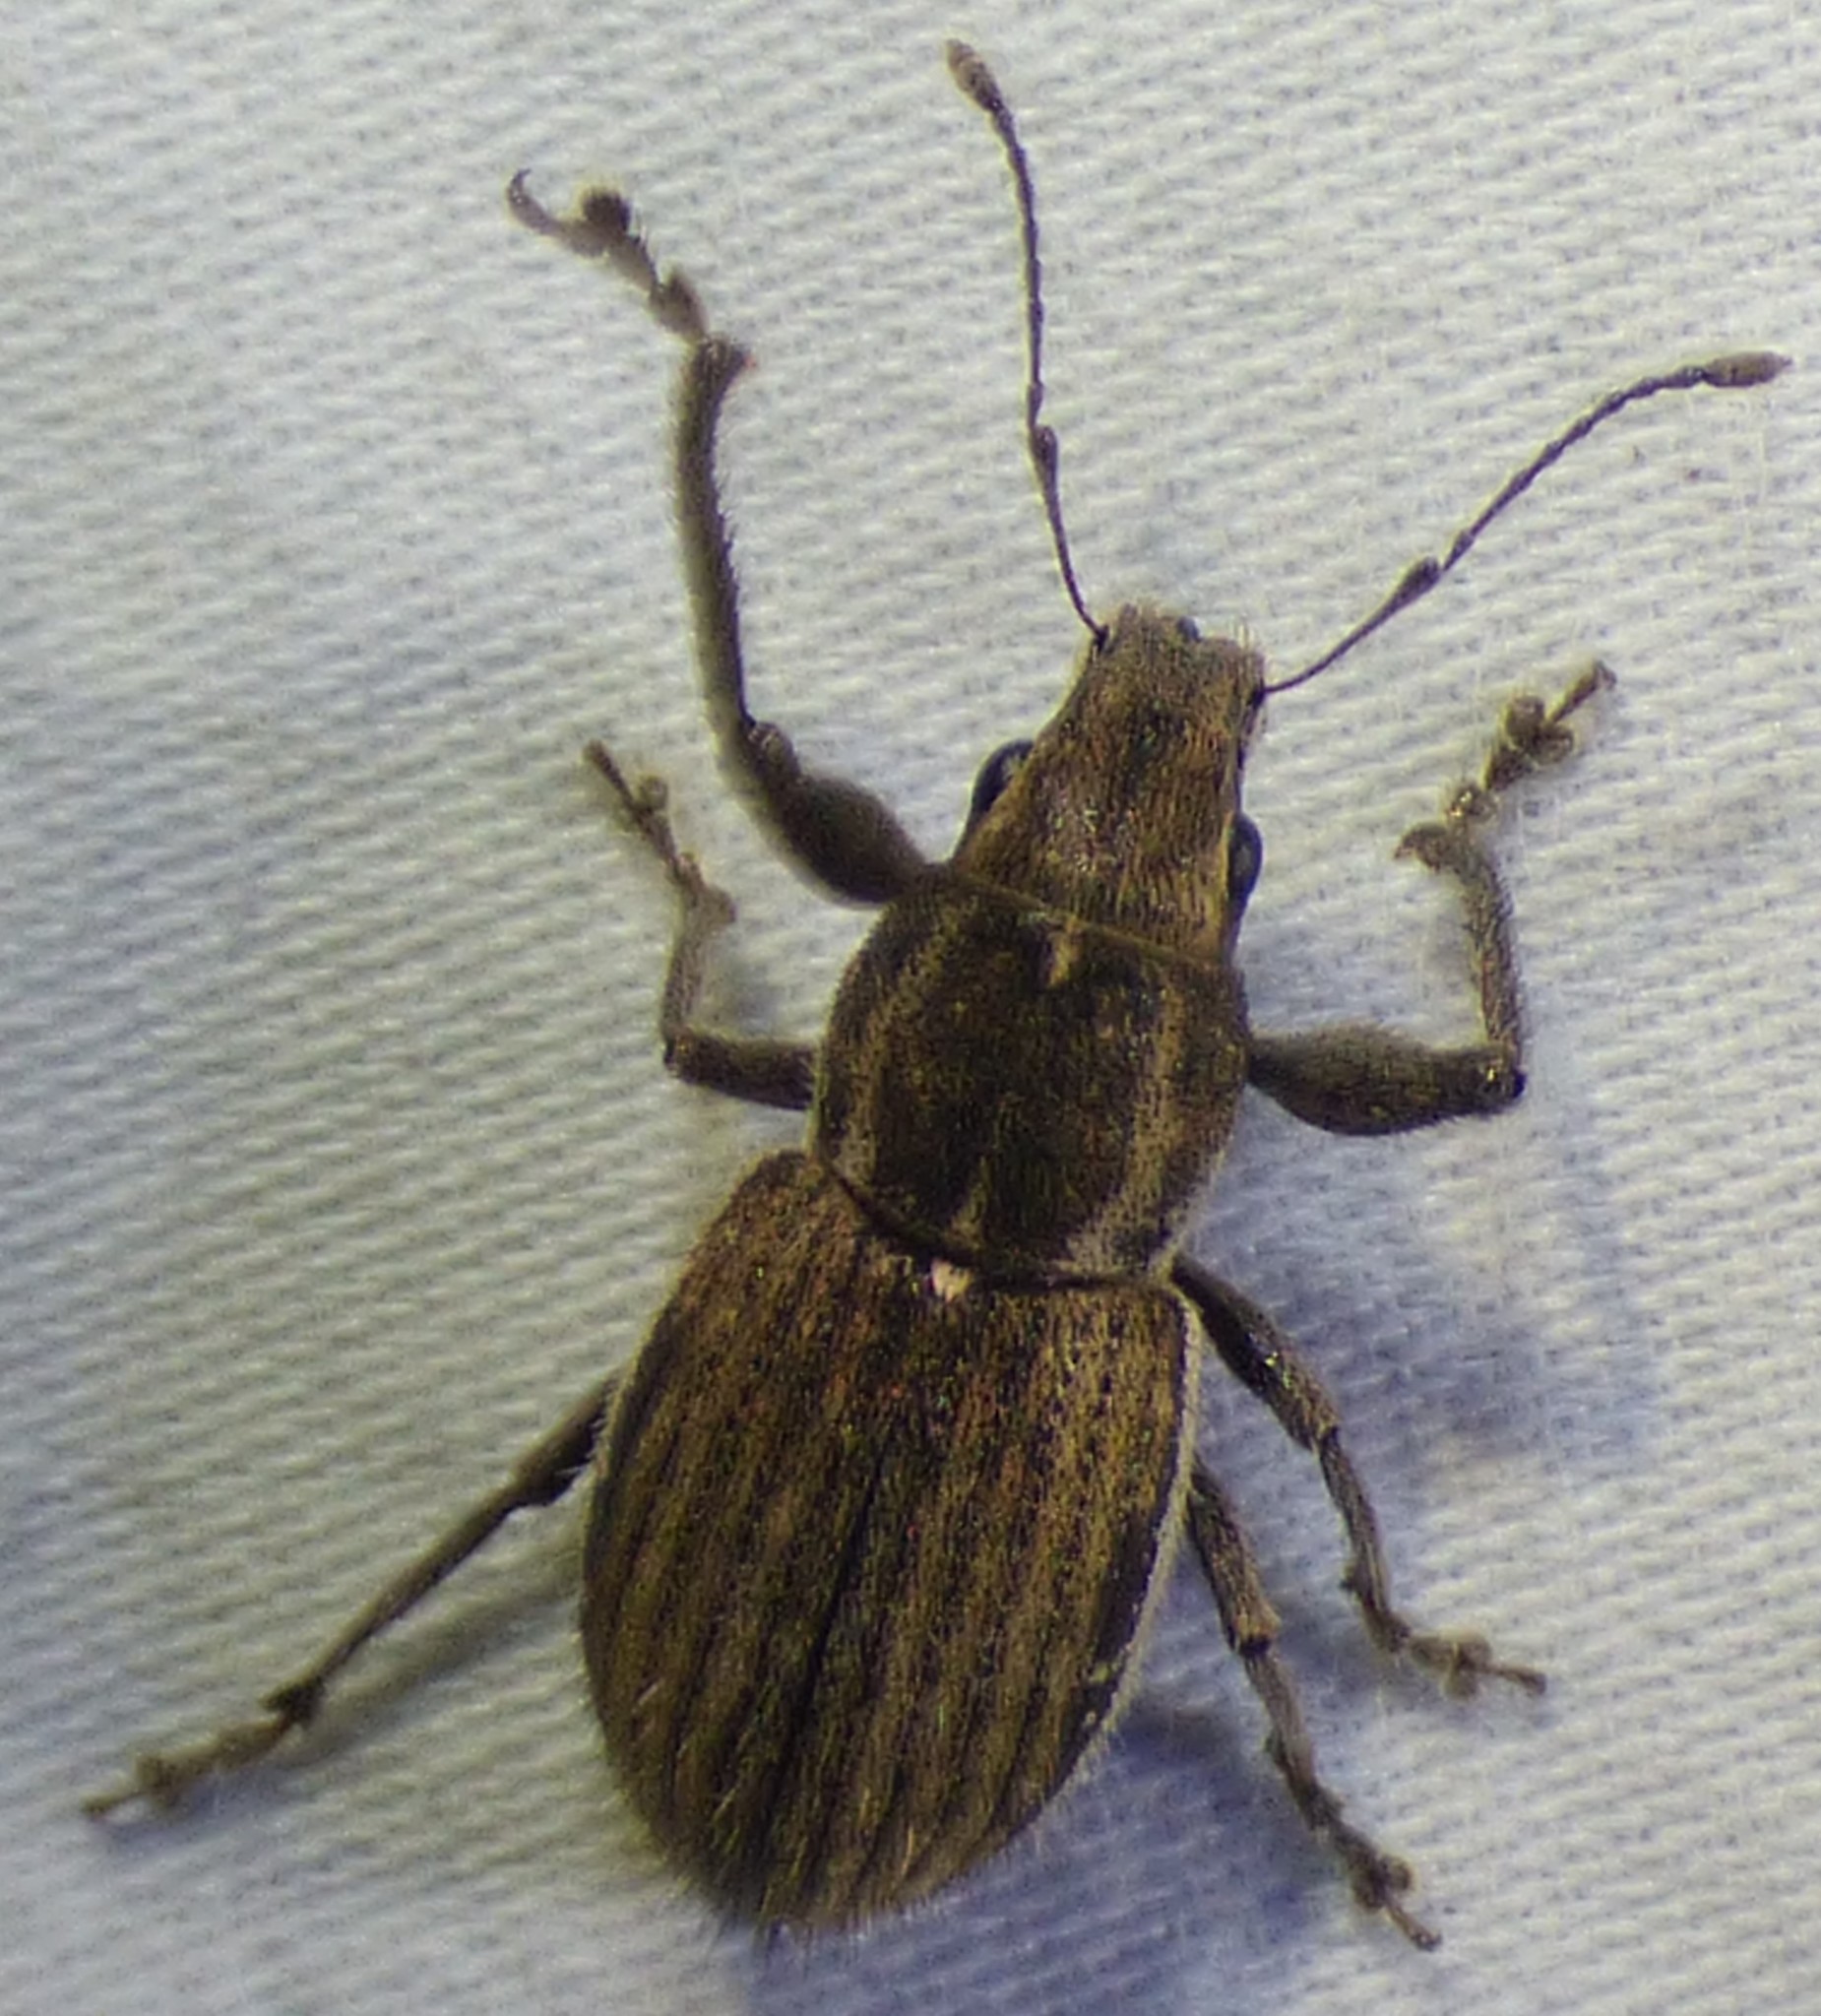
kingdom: Animalia
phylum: Arthropoda
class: Insecta
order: Coleoptera
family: Curculionidae
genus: Naupactus
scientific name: Naupactus leucoloma
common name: Whitefringed beetle
